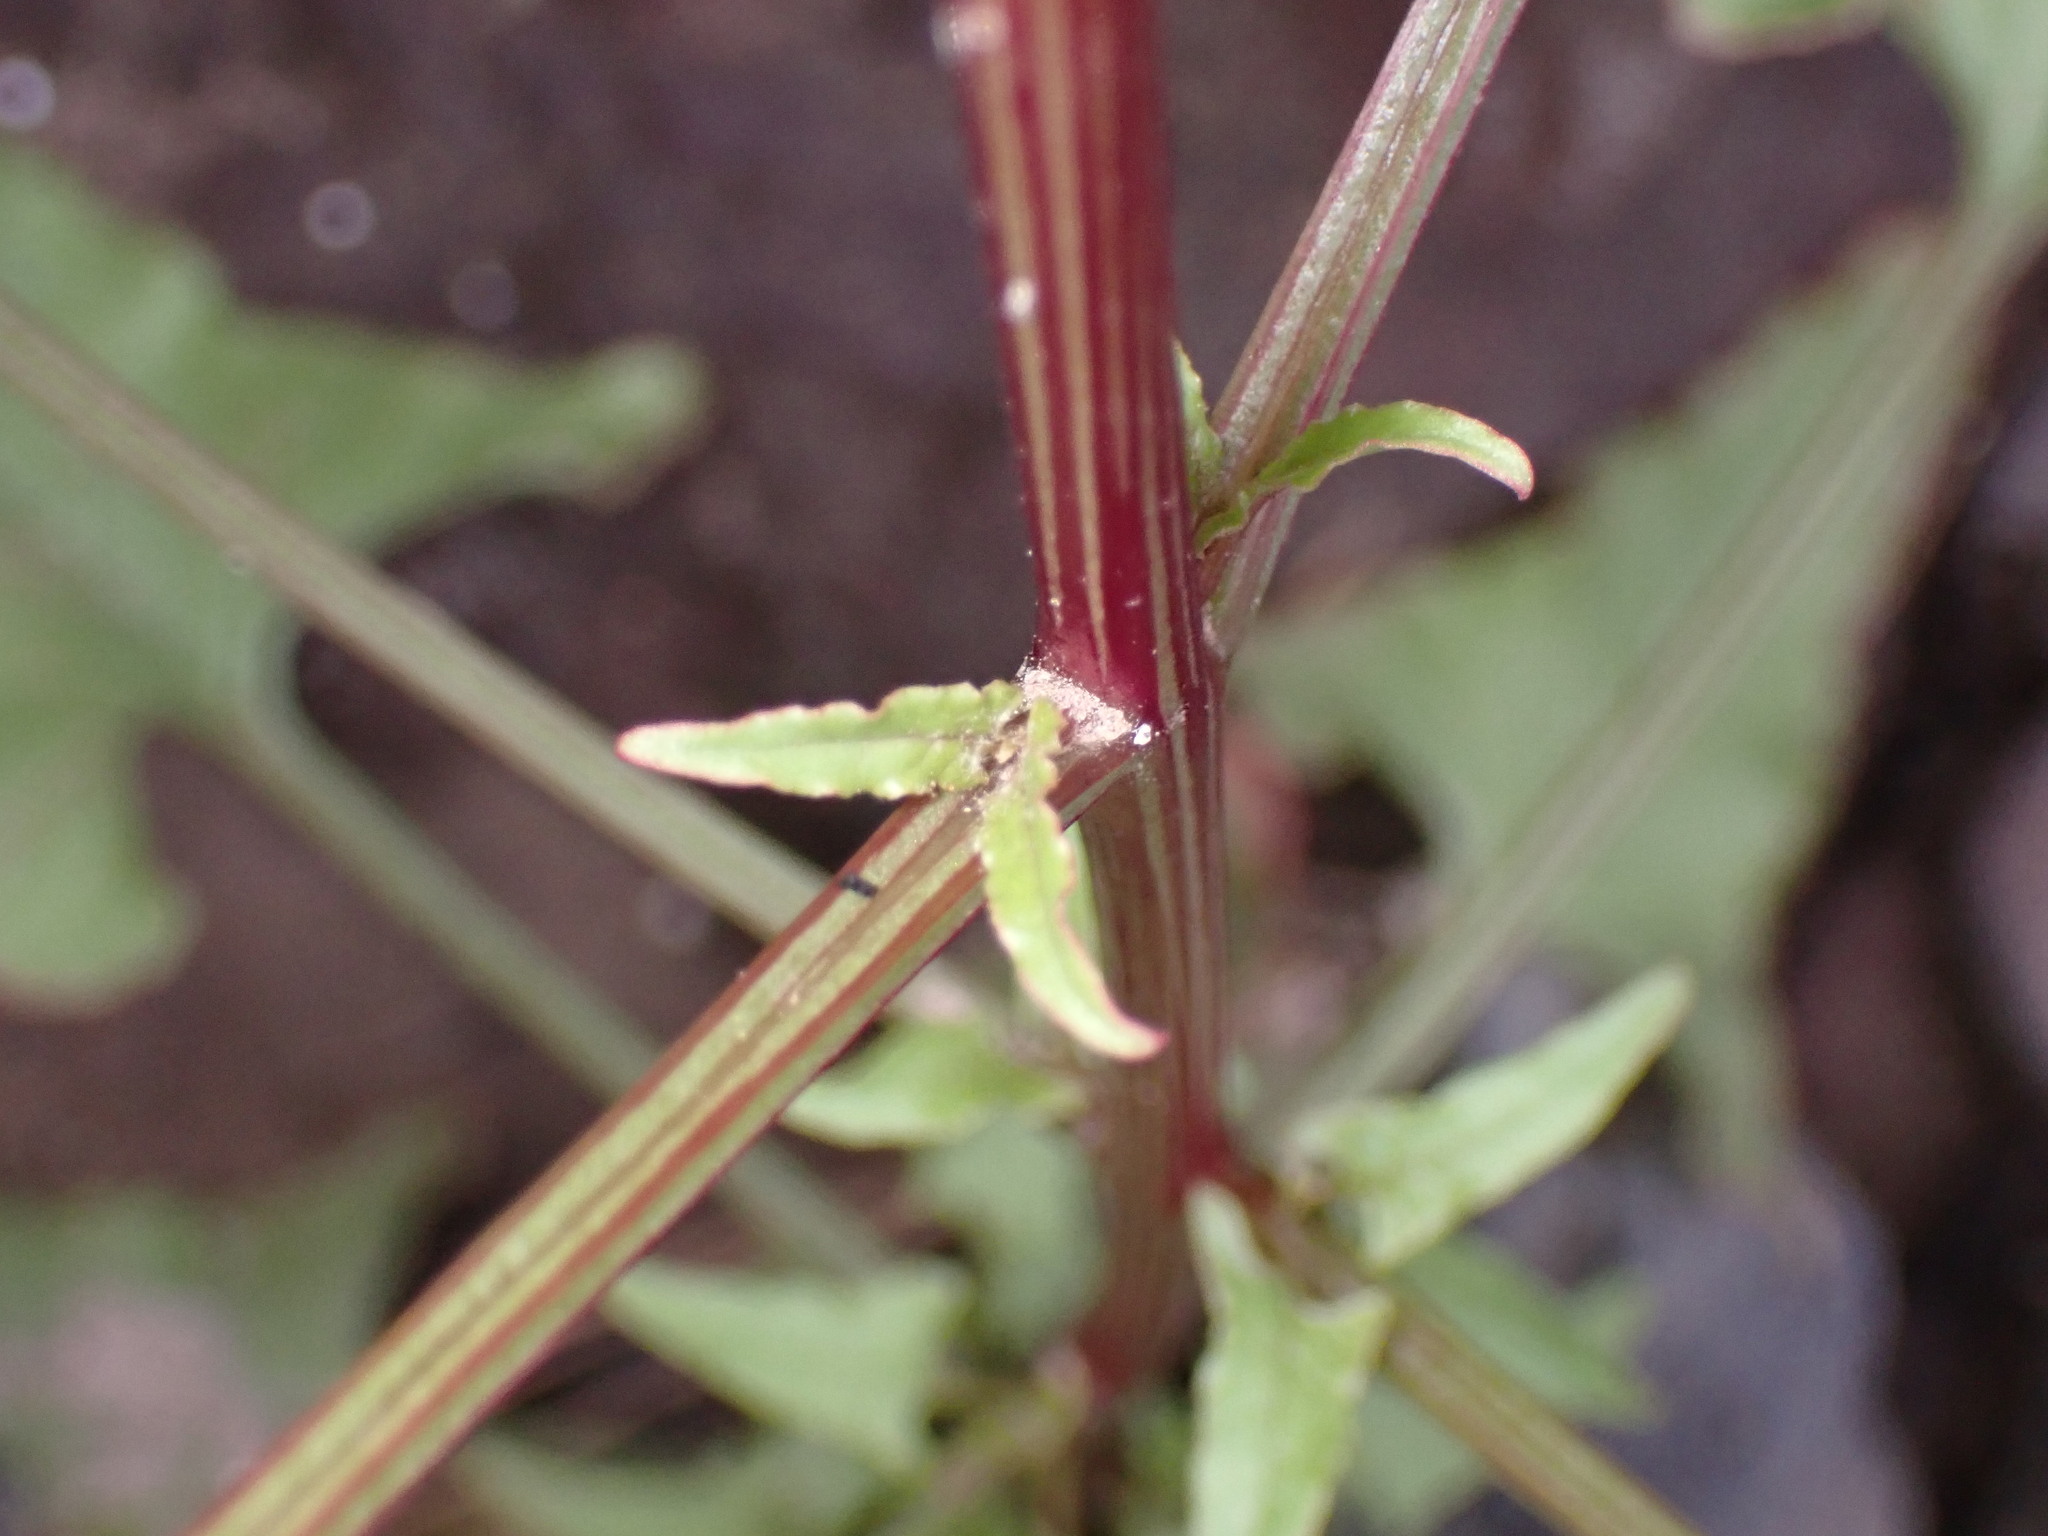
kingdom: Plantae
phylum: Tracheophyta
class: Magnoliopsida
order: Caryophyllales
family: Amaranthaceae
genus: Patellifolia
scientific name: Patellifolia procumbens
